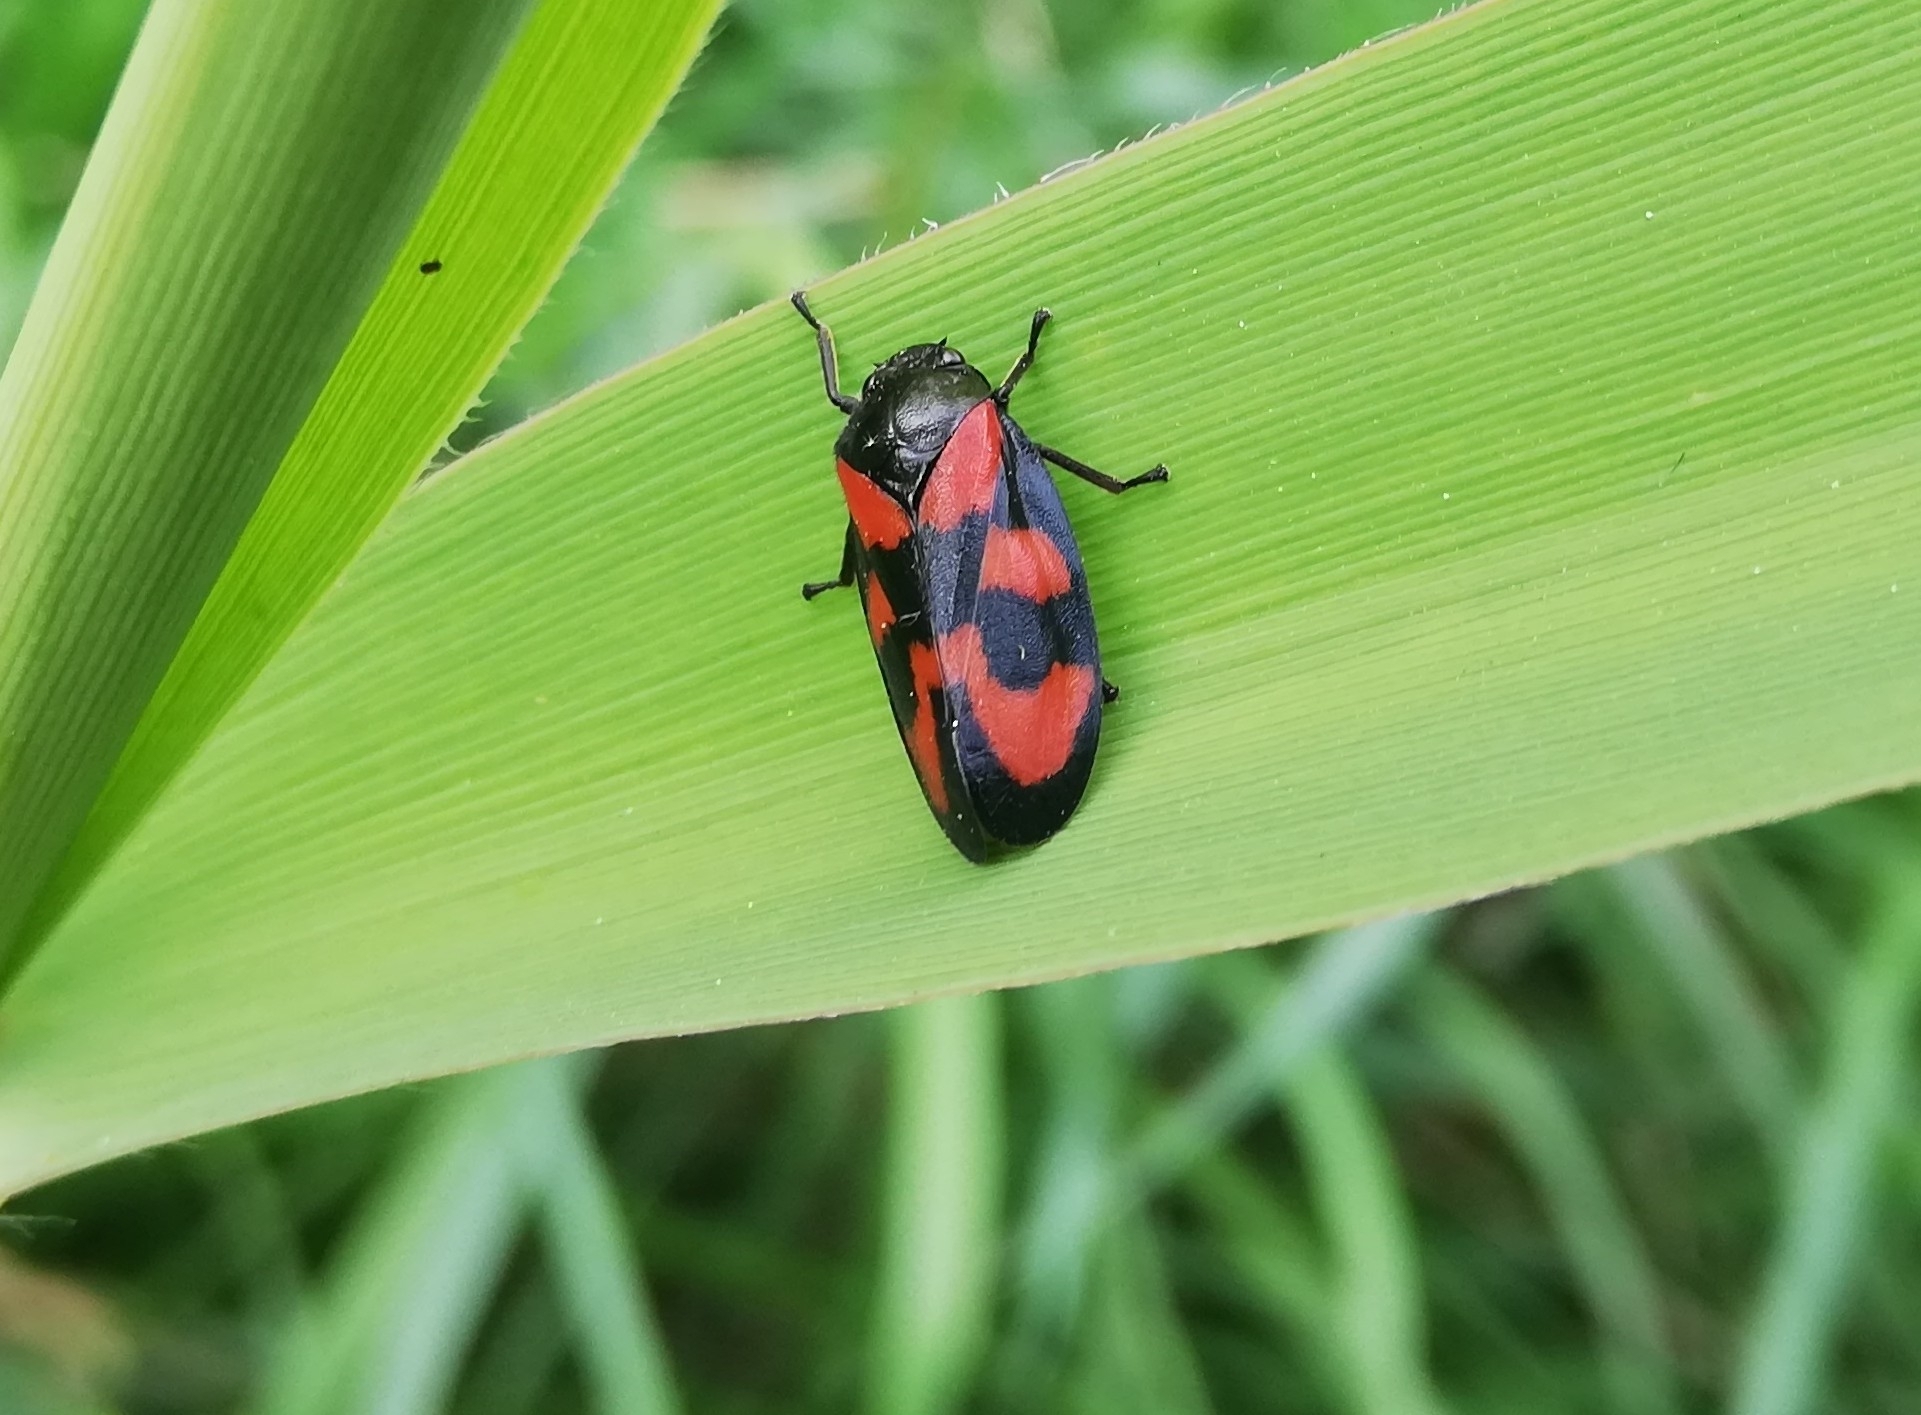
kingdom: Animalia
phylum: Arthropoda
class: Insecta
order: Hemiptera
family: Cercopidae
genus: Cercopis
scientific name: Cercopis vulnerata
